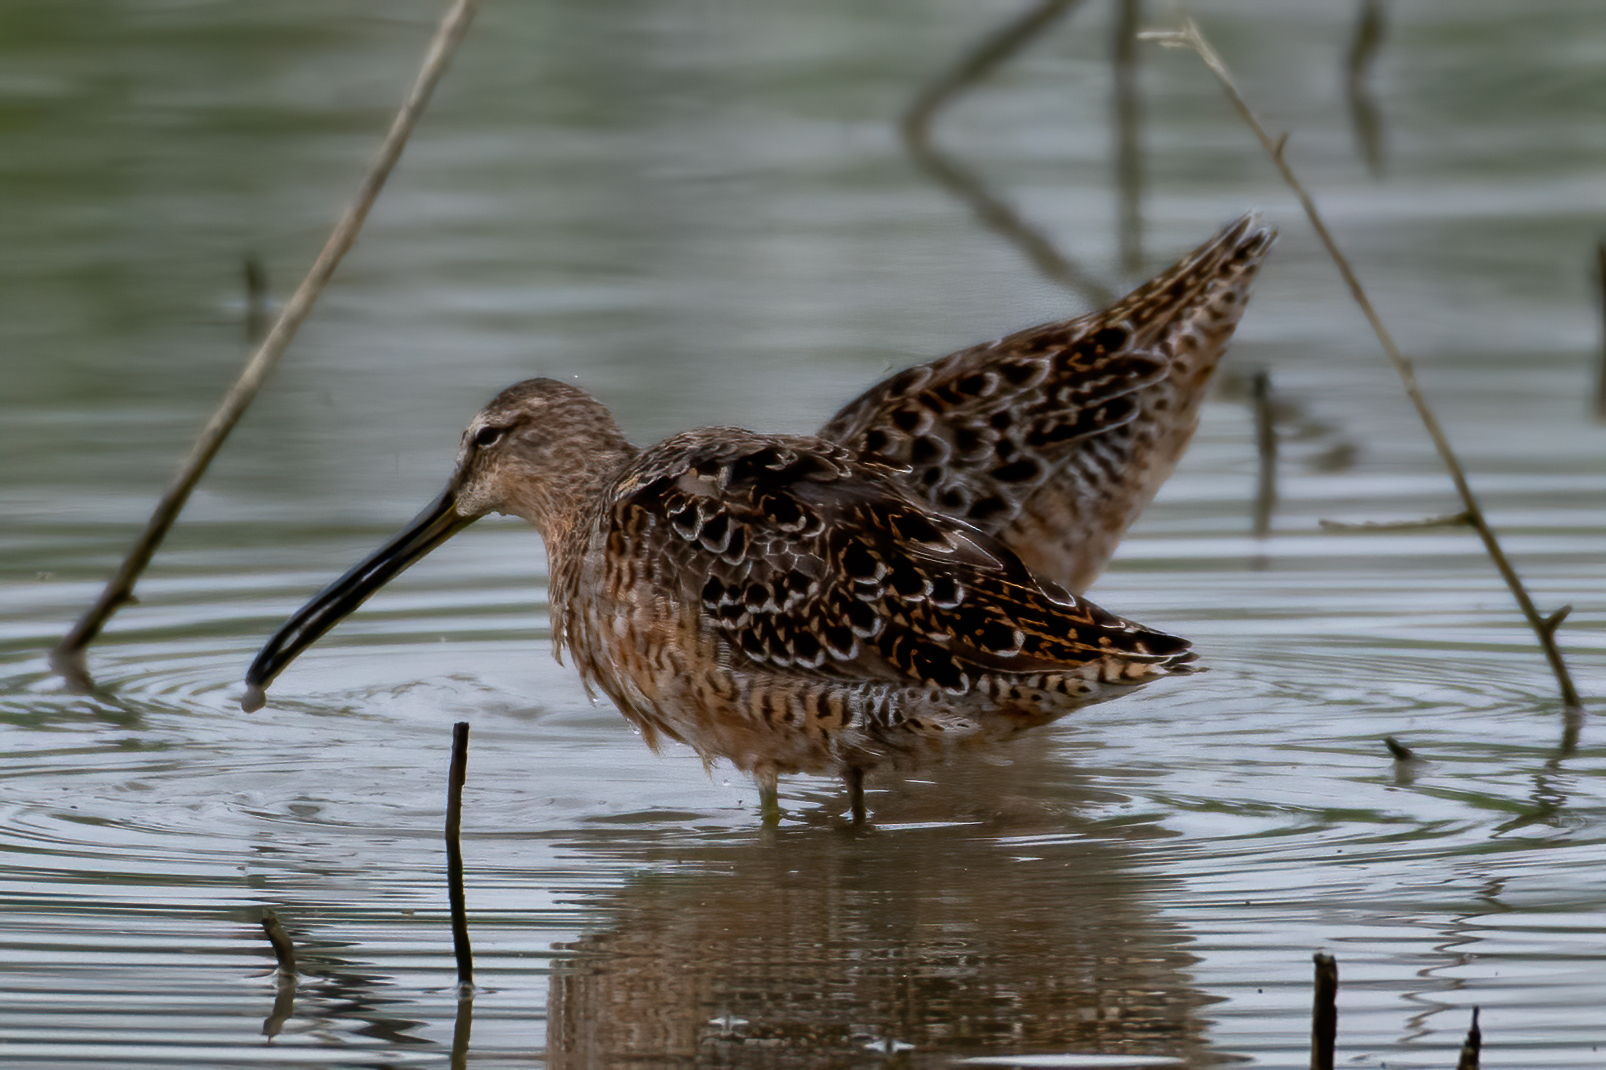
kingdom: Animalia
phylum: Chordata
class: Aves
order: Charadriiformes
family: Scolopacidae
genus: Limnodromus
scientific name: Limnodromus scolopaceus
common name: Long-billed dowitcher
